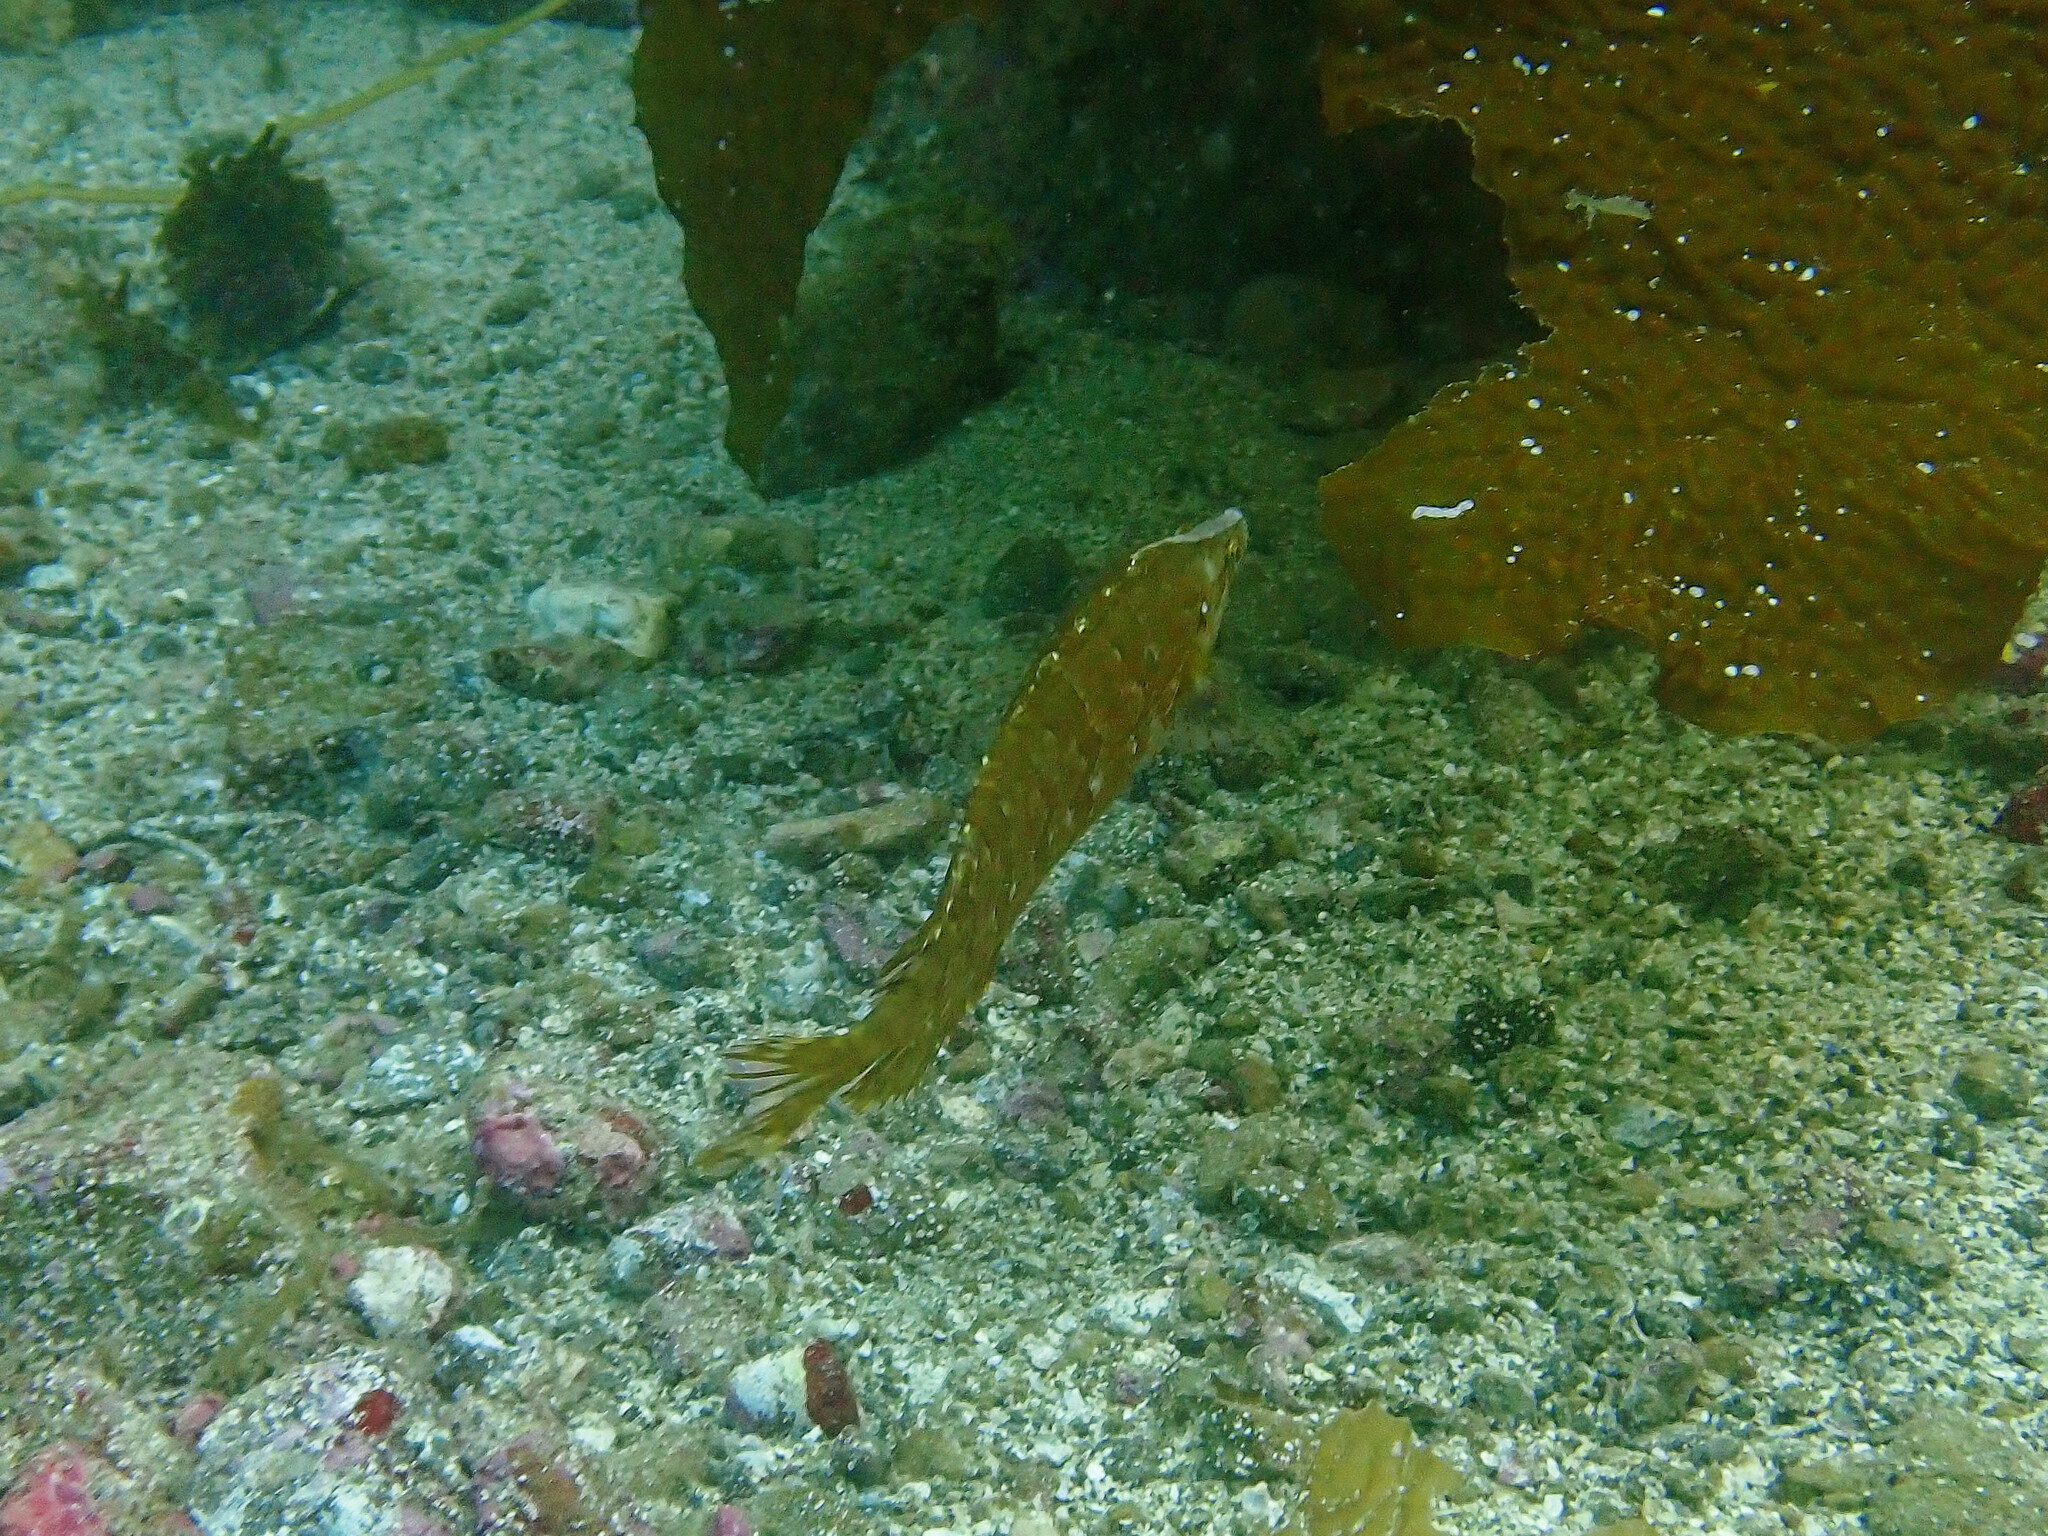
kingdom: Animalia
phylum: Chordata
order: Perciformes
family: Clinidae
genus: Heterostichus
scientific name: Heterostichus rostratus
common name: Giant kelpfish
